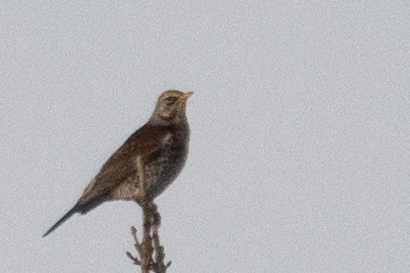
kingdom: Animalia
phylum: Chordata
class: Aves
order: Passeriformes
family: Turdidae
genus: Turdus
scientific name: Turdus pilaris
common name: Fieldfare
